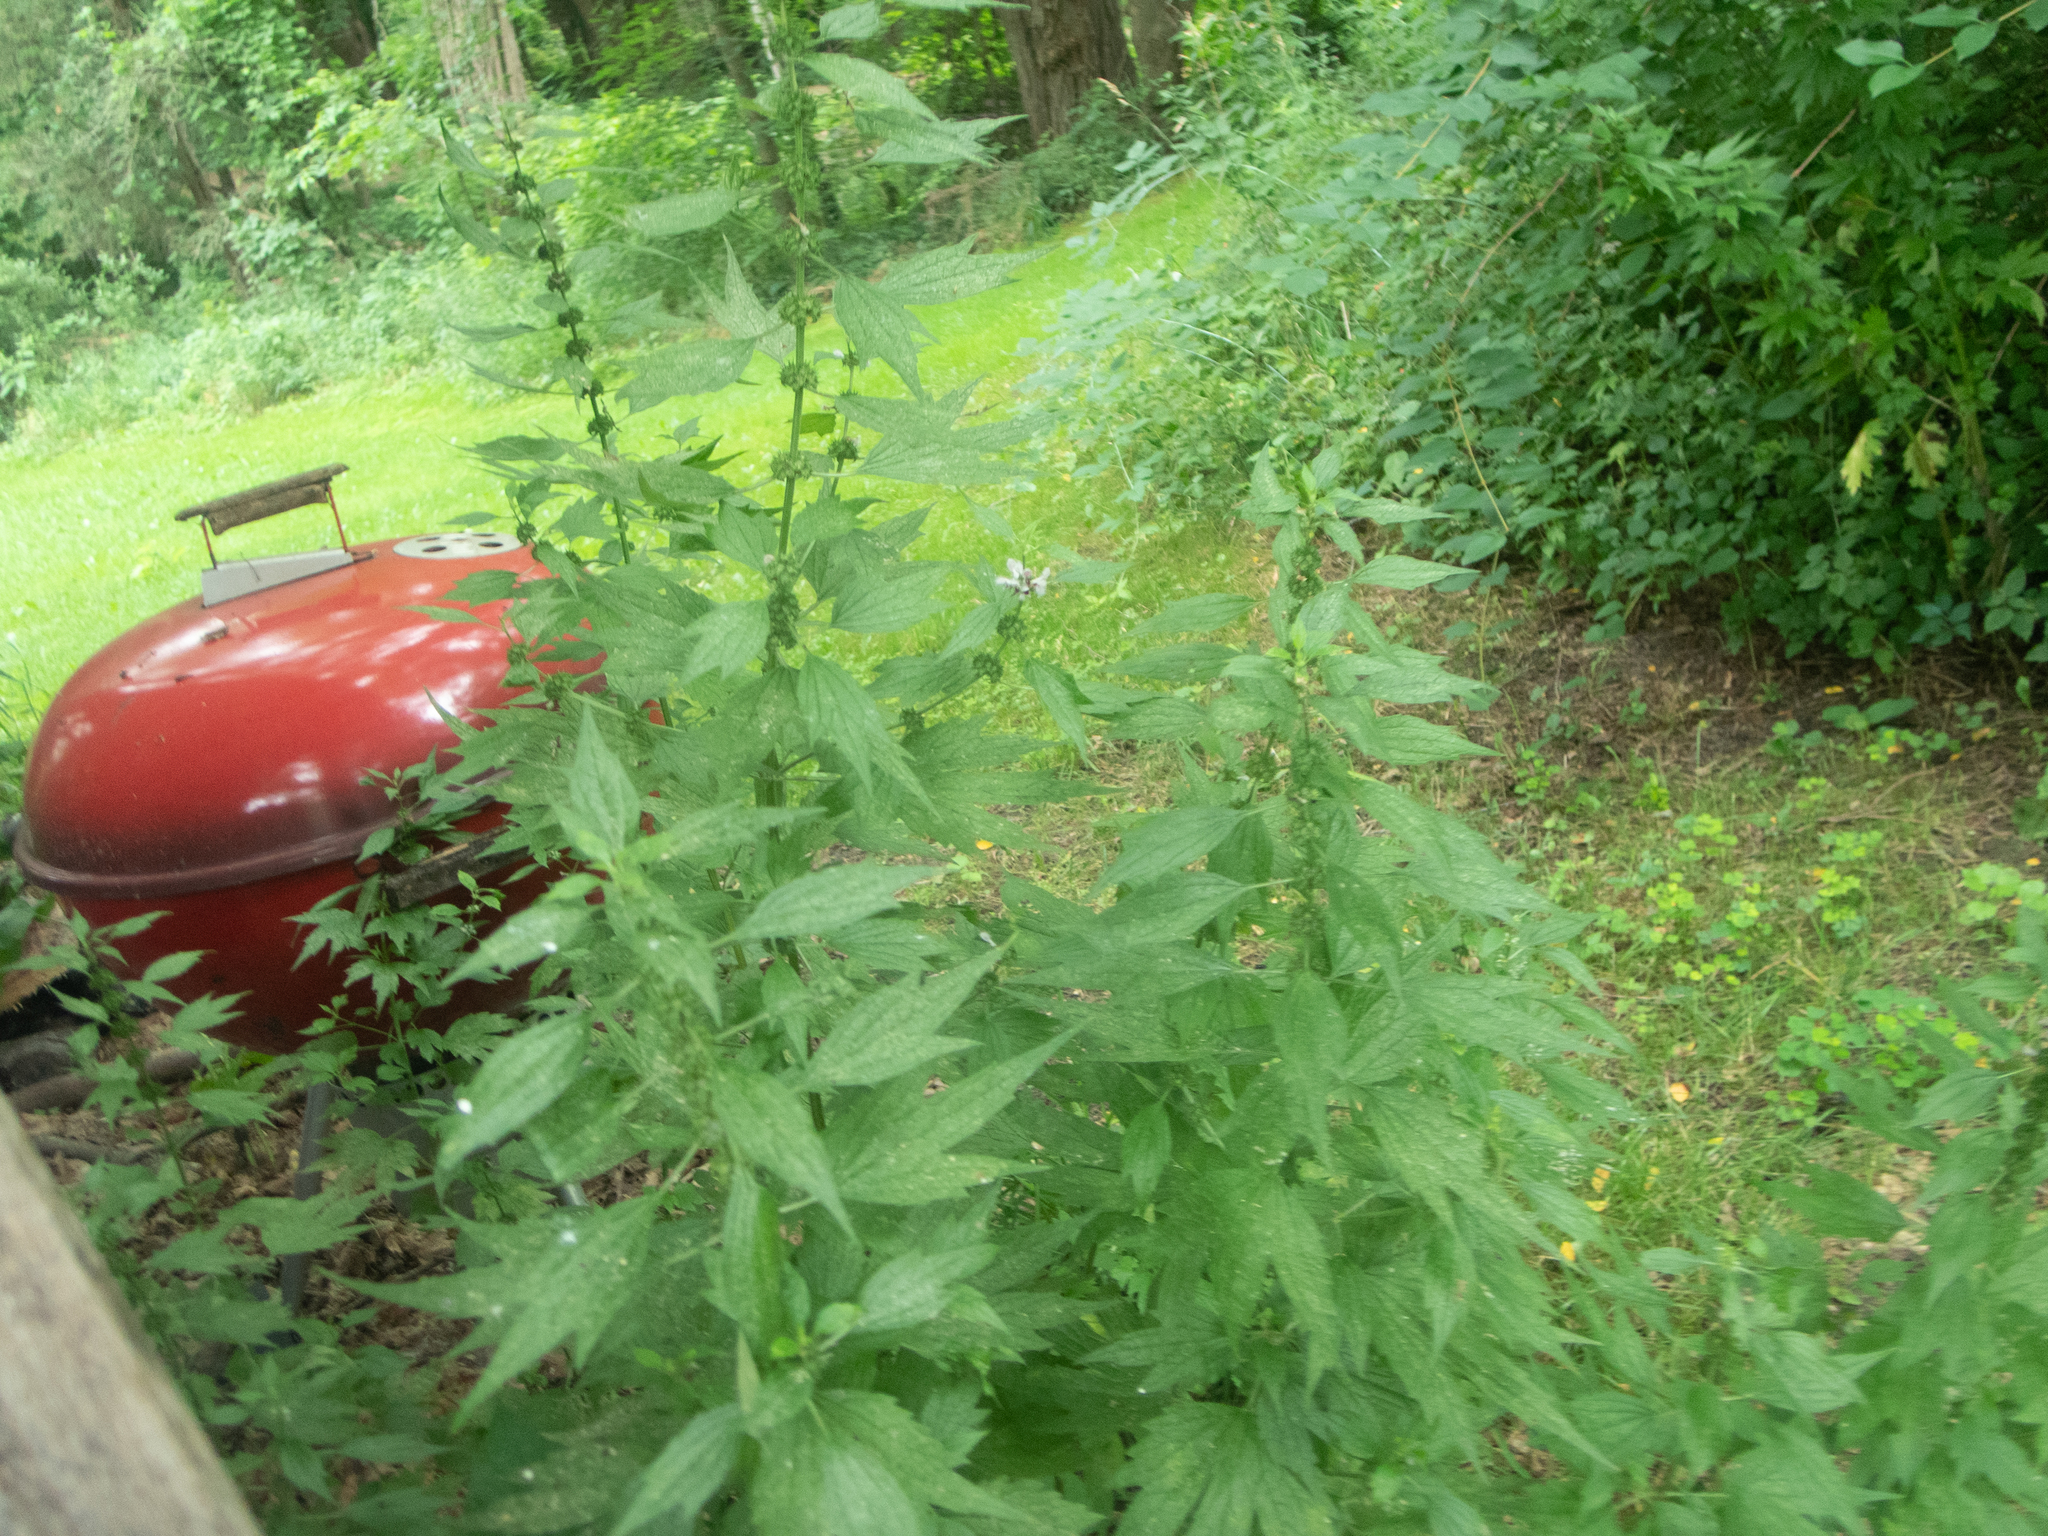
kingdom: Plantae
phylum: Tracheophyta
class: Magnoliopsida
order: Lamiales
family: Lamiaceae
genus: Leonurus
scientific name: Leonurus cardiaca
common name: Motherwort
